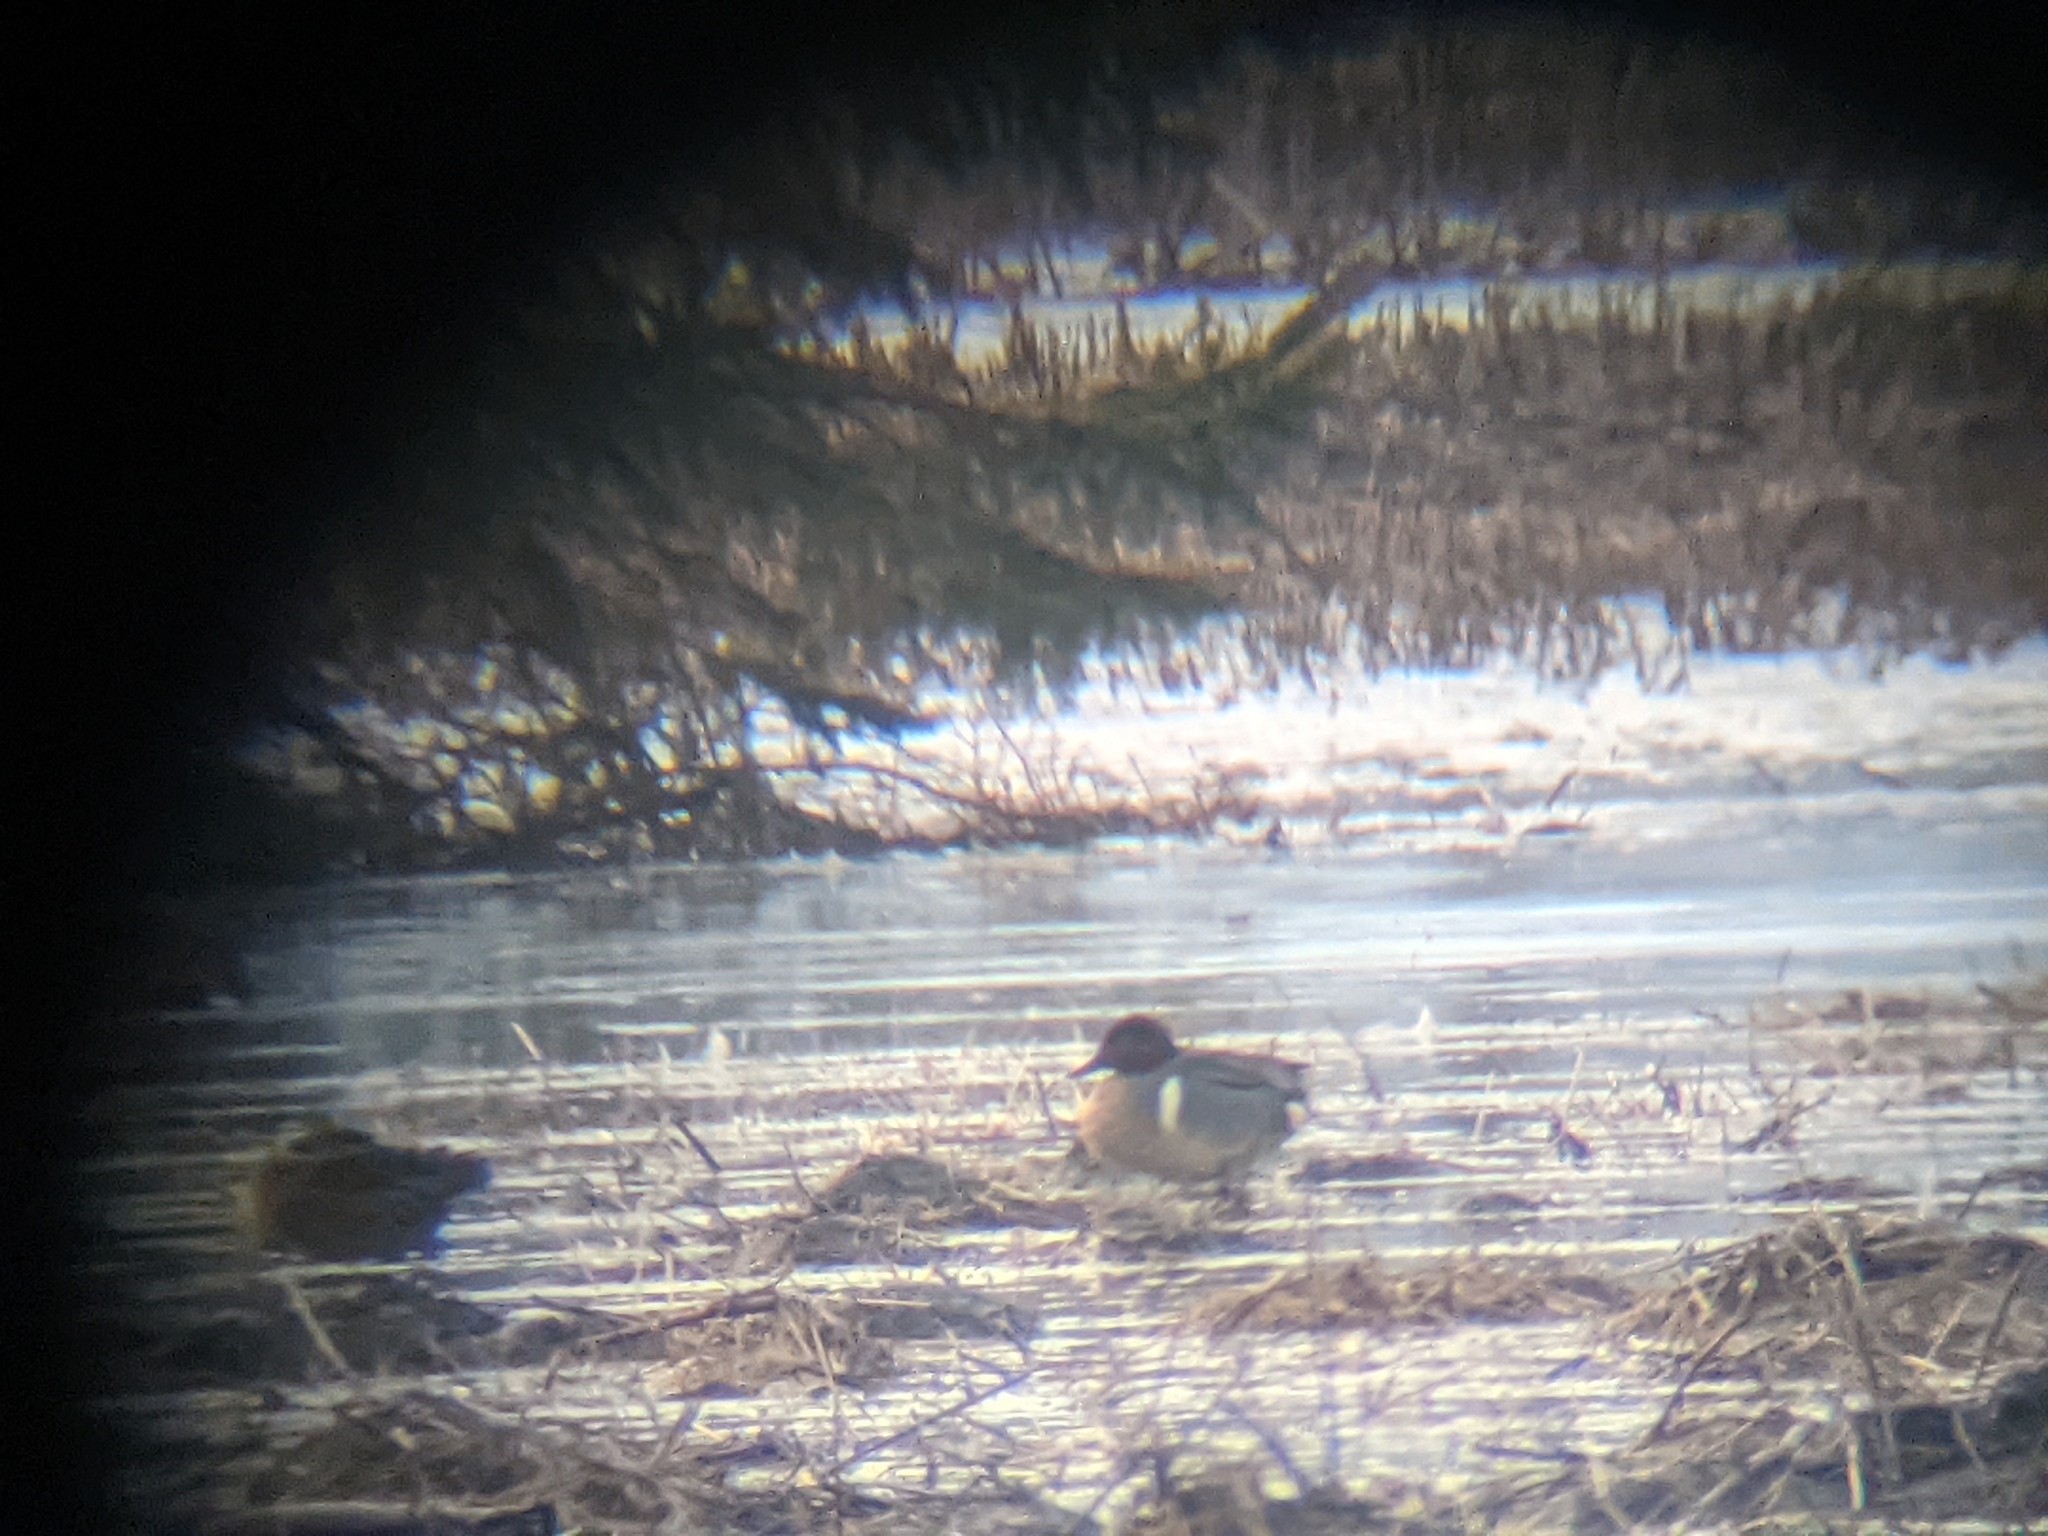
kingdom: Animalia
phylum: Chordata
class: Aves
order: Anseriformes
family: Anatidae
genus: Anas
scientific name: Anas crecca
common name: Eurasian teal
